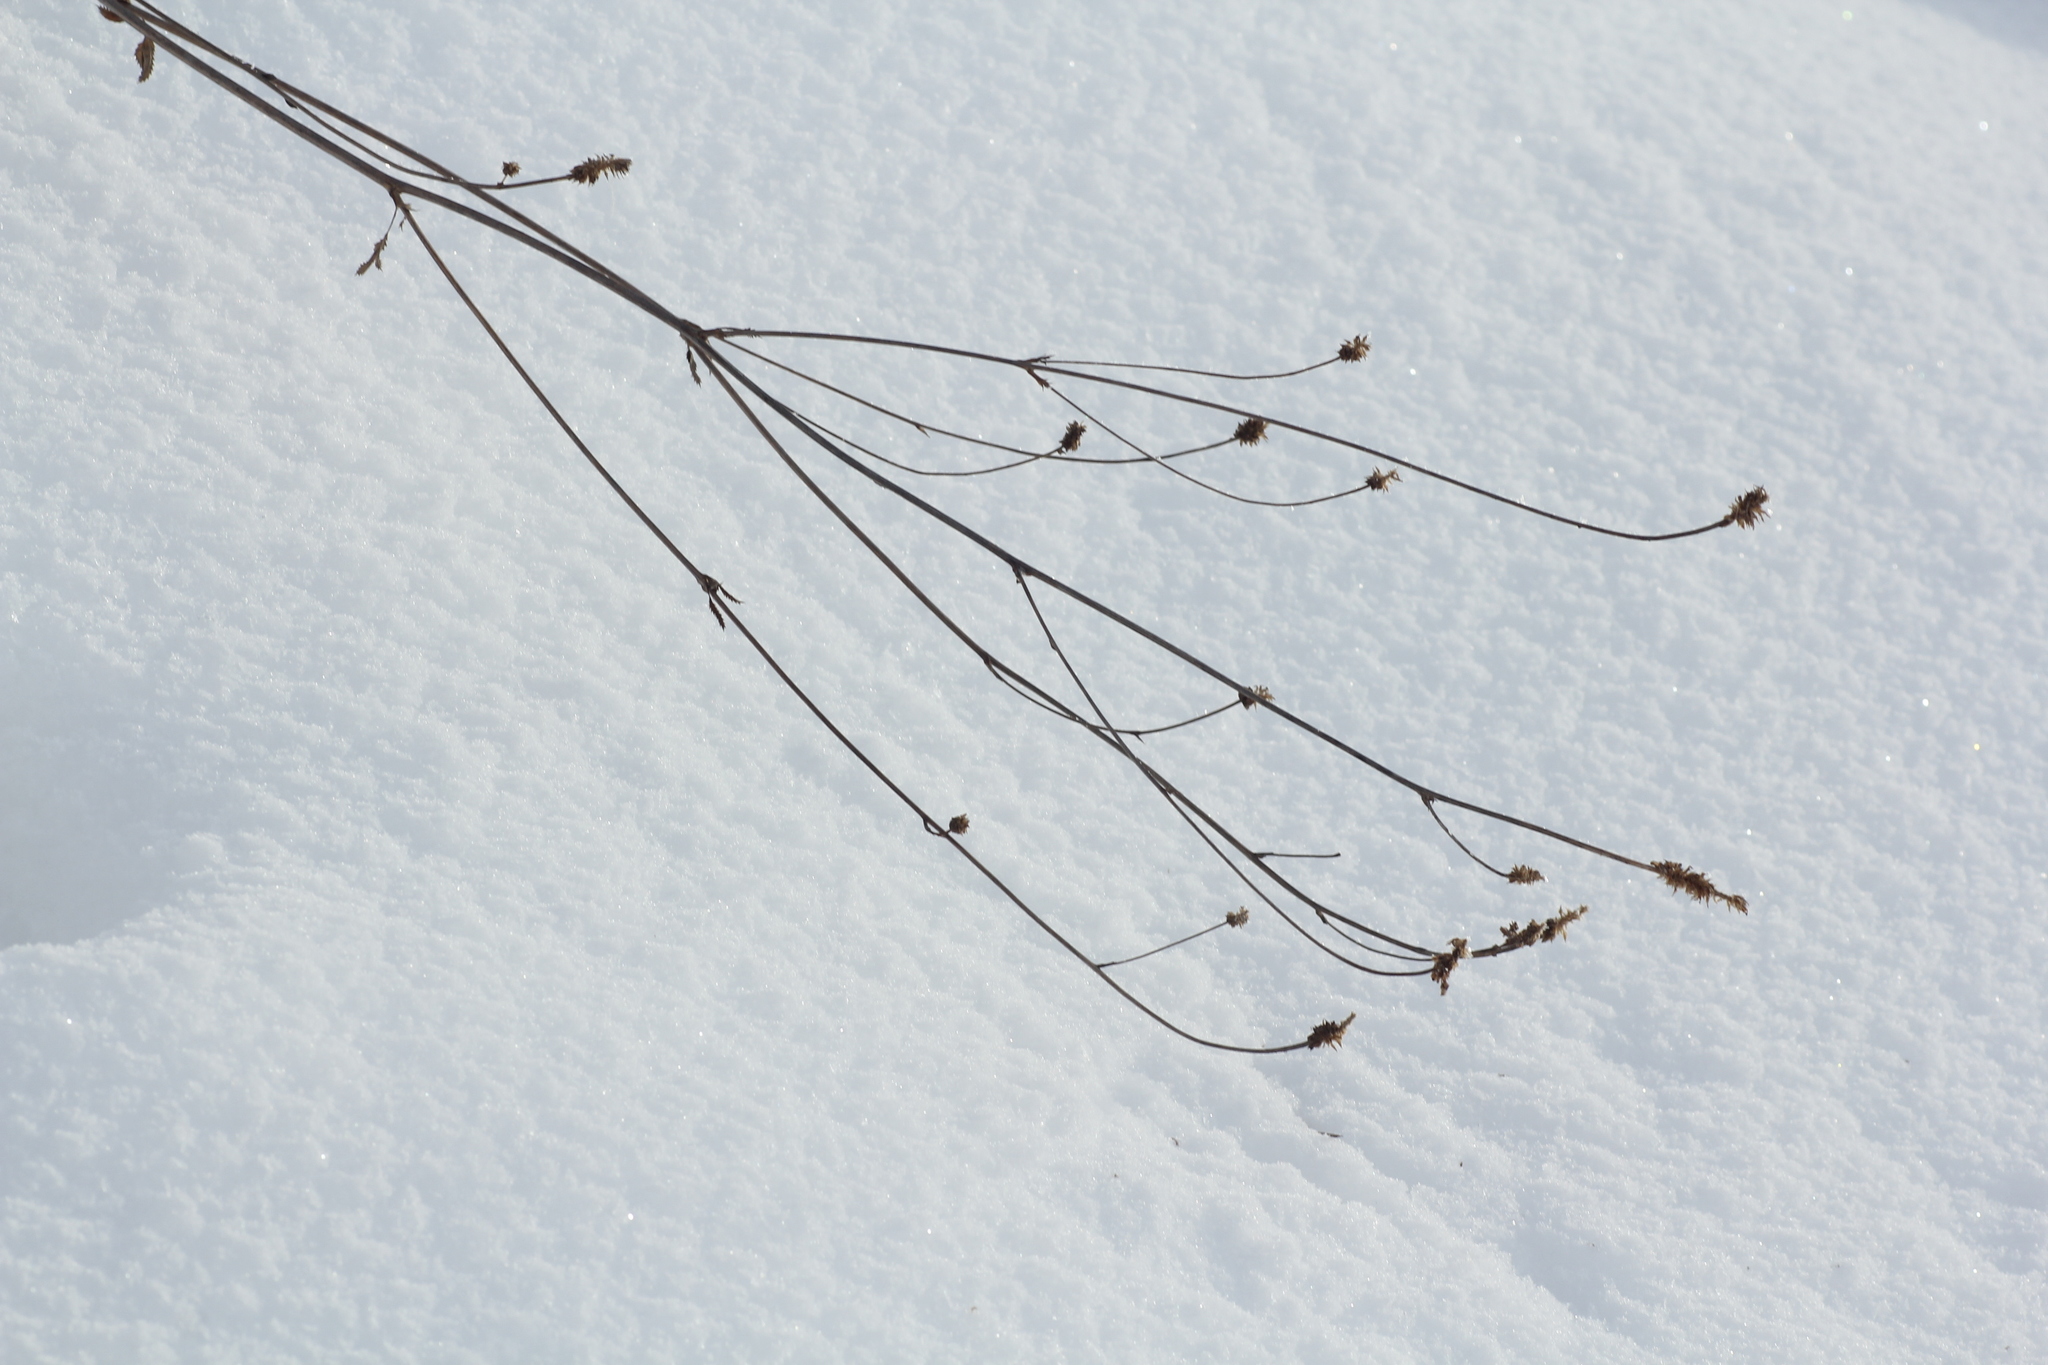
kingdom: Plantae
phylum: Tracheophyta
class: Magnoliopsida
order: Rosales
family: Rosaceae
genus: Sanguisorba
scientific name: Sanguisorba officinalis
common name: Great burnet
